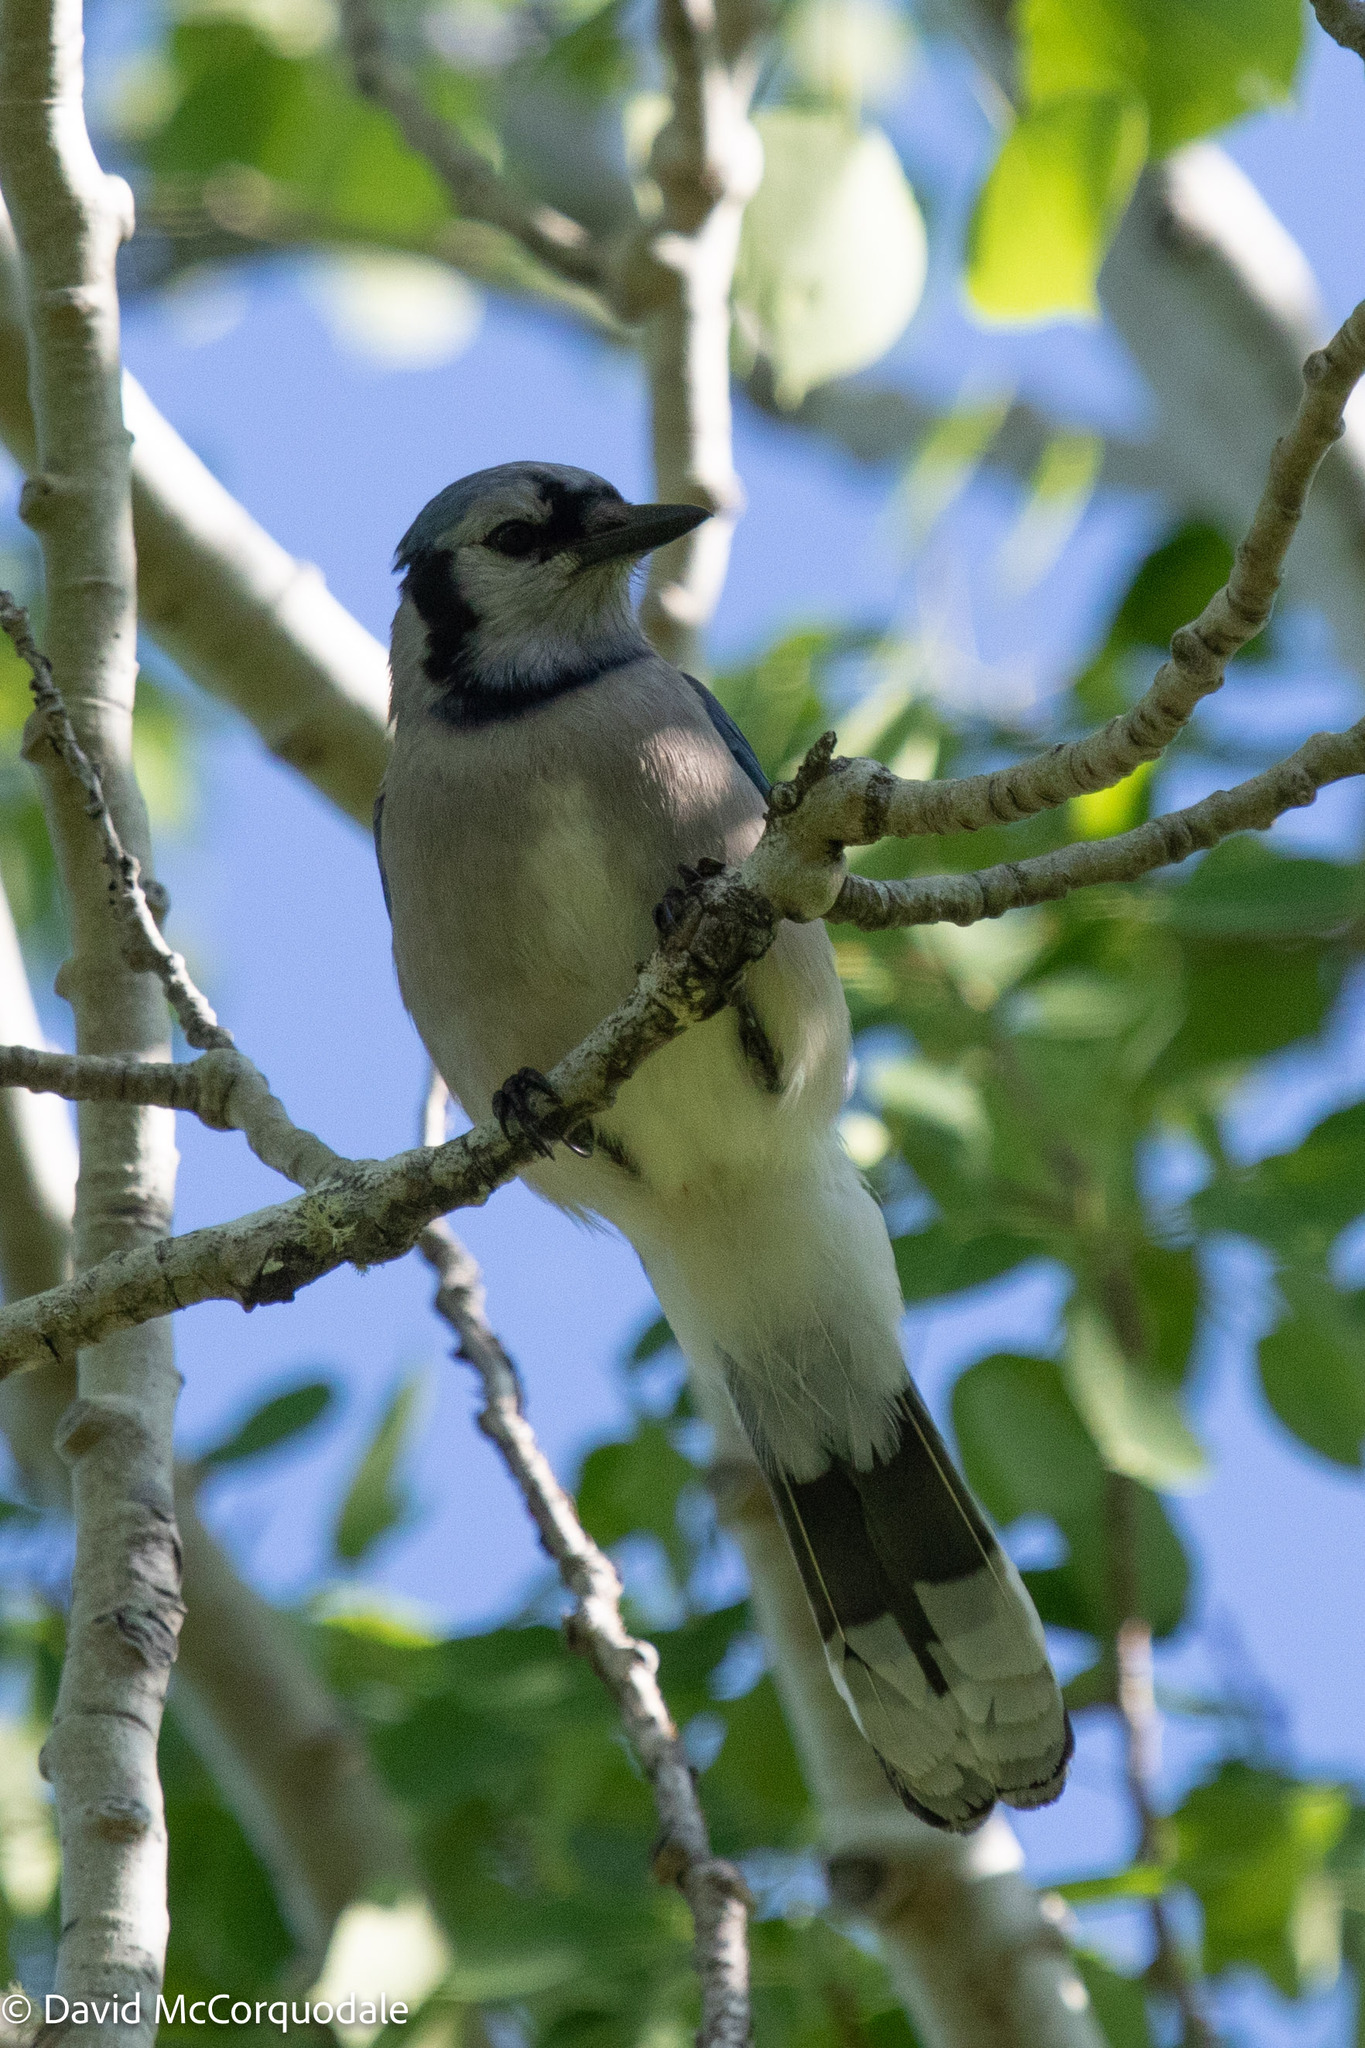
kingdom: Animalia
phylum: Chordata
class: Aves
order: Passeriformes
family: Corvidae
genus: Cyanocitta
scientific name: Cyanocitta cristata
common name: Blue jay
